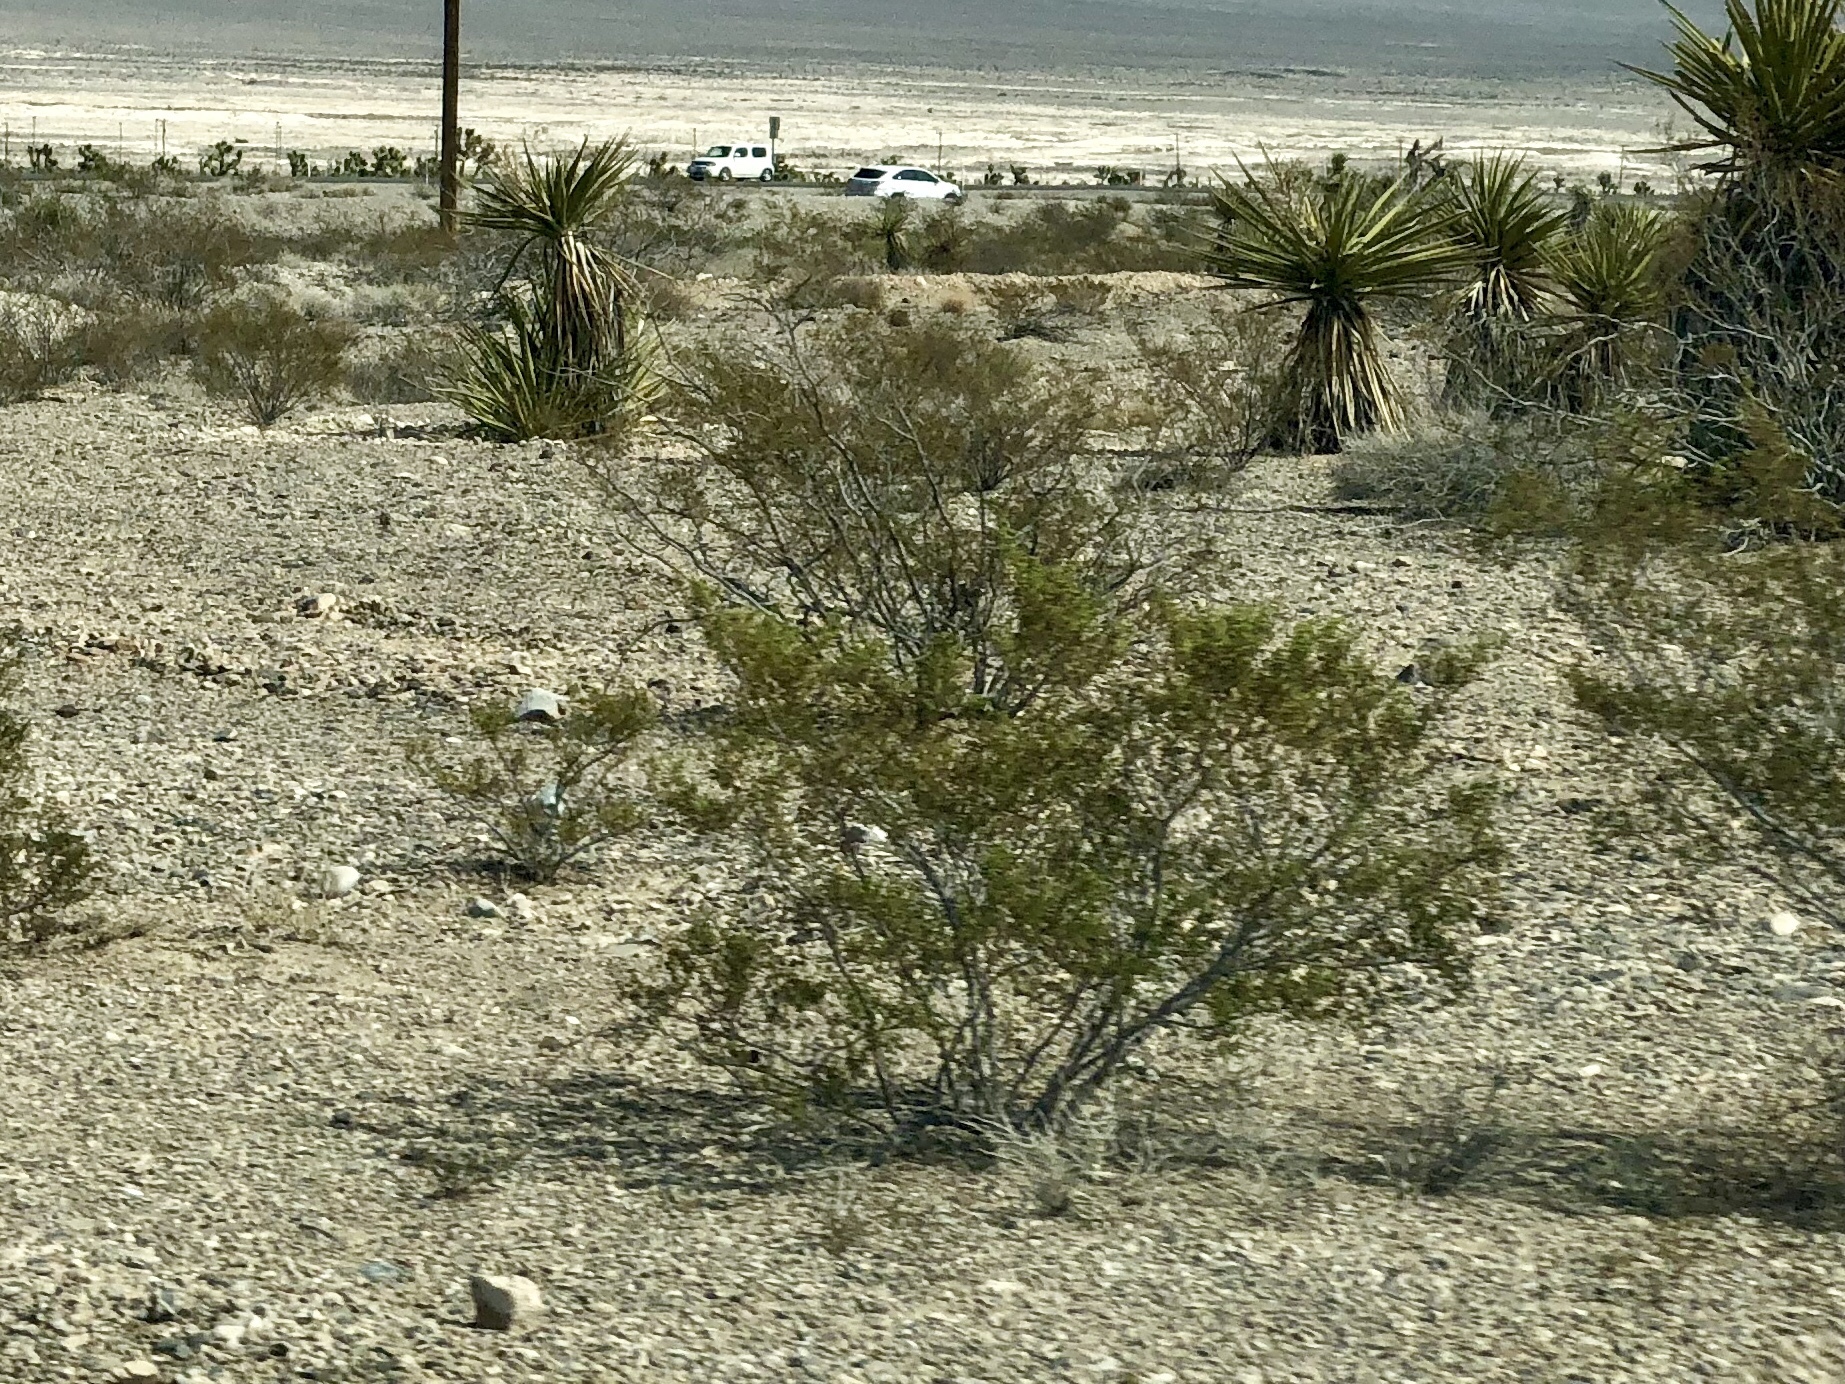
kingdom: Plantae
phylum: Tracheophyta
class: Magnoliopsida
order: Zygophyllales
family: Zygophyllaceae
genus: Larrea
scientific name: Larrea tridentata
